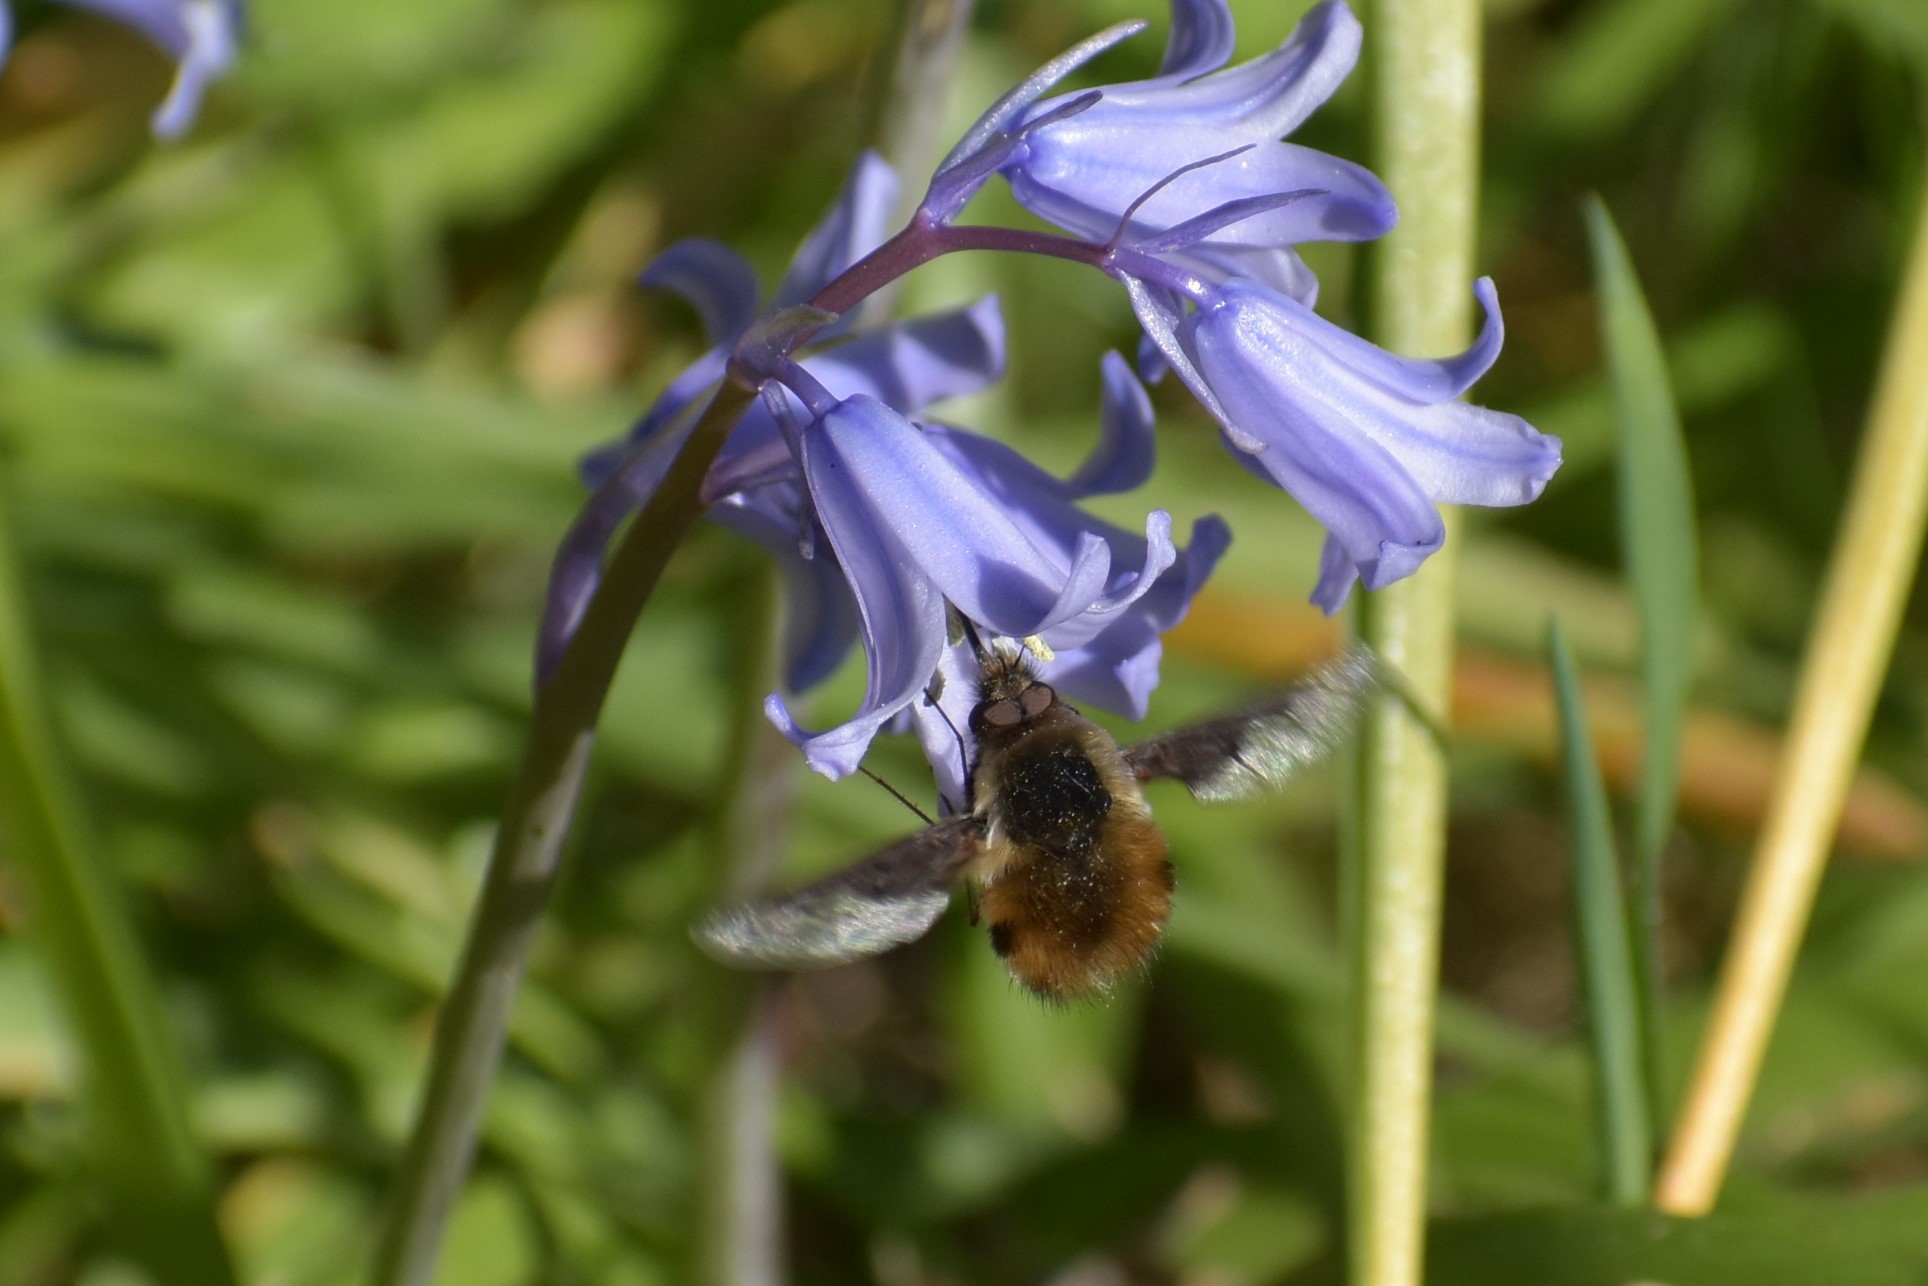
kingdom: Animalia
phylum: Arthropoda
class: Insecta
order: Diptera
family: Bombyliidae
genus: Bombylius
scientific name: Bombylius major
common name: Bee fly
